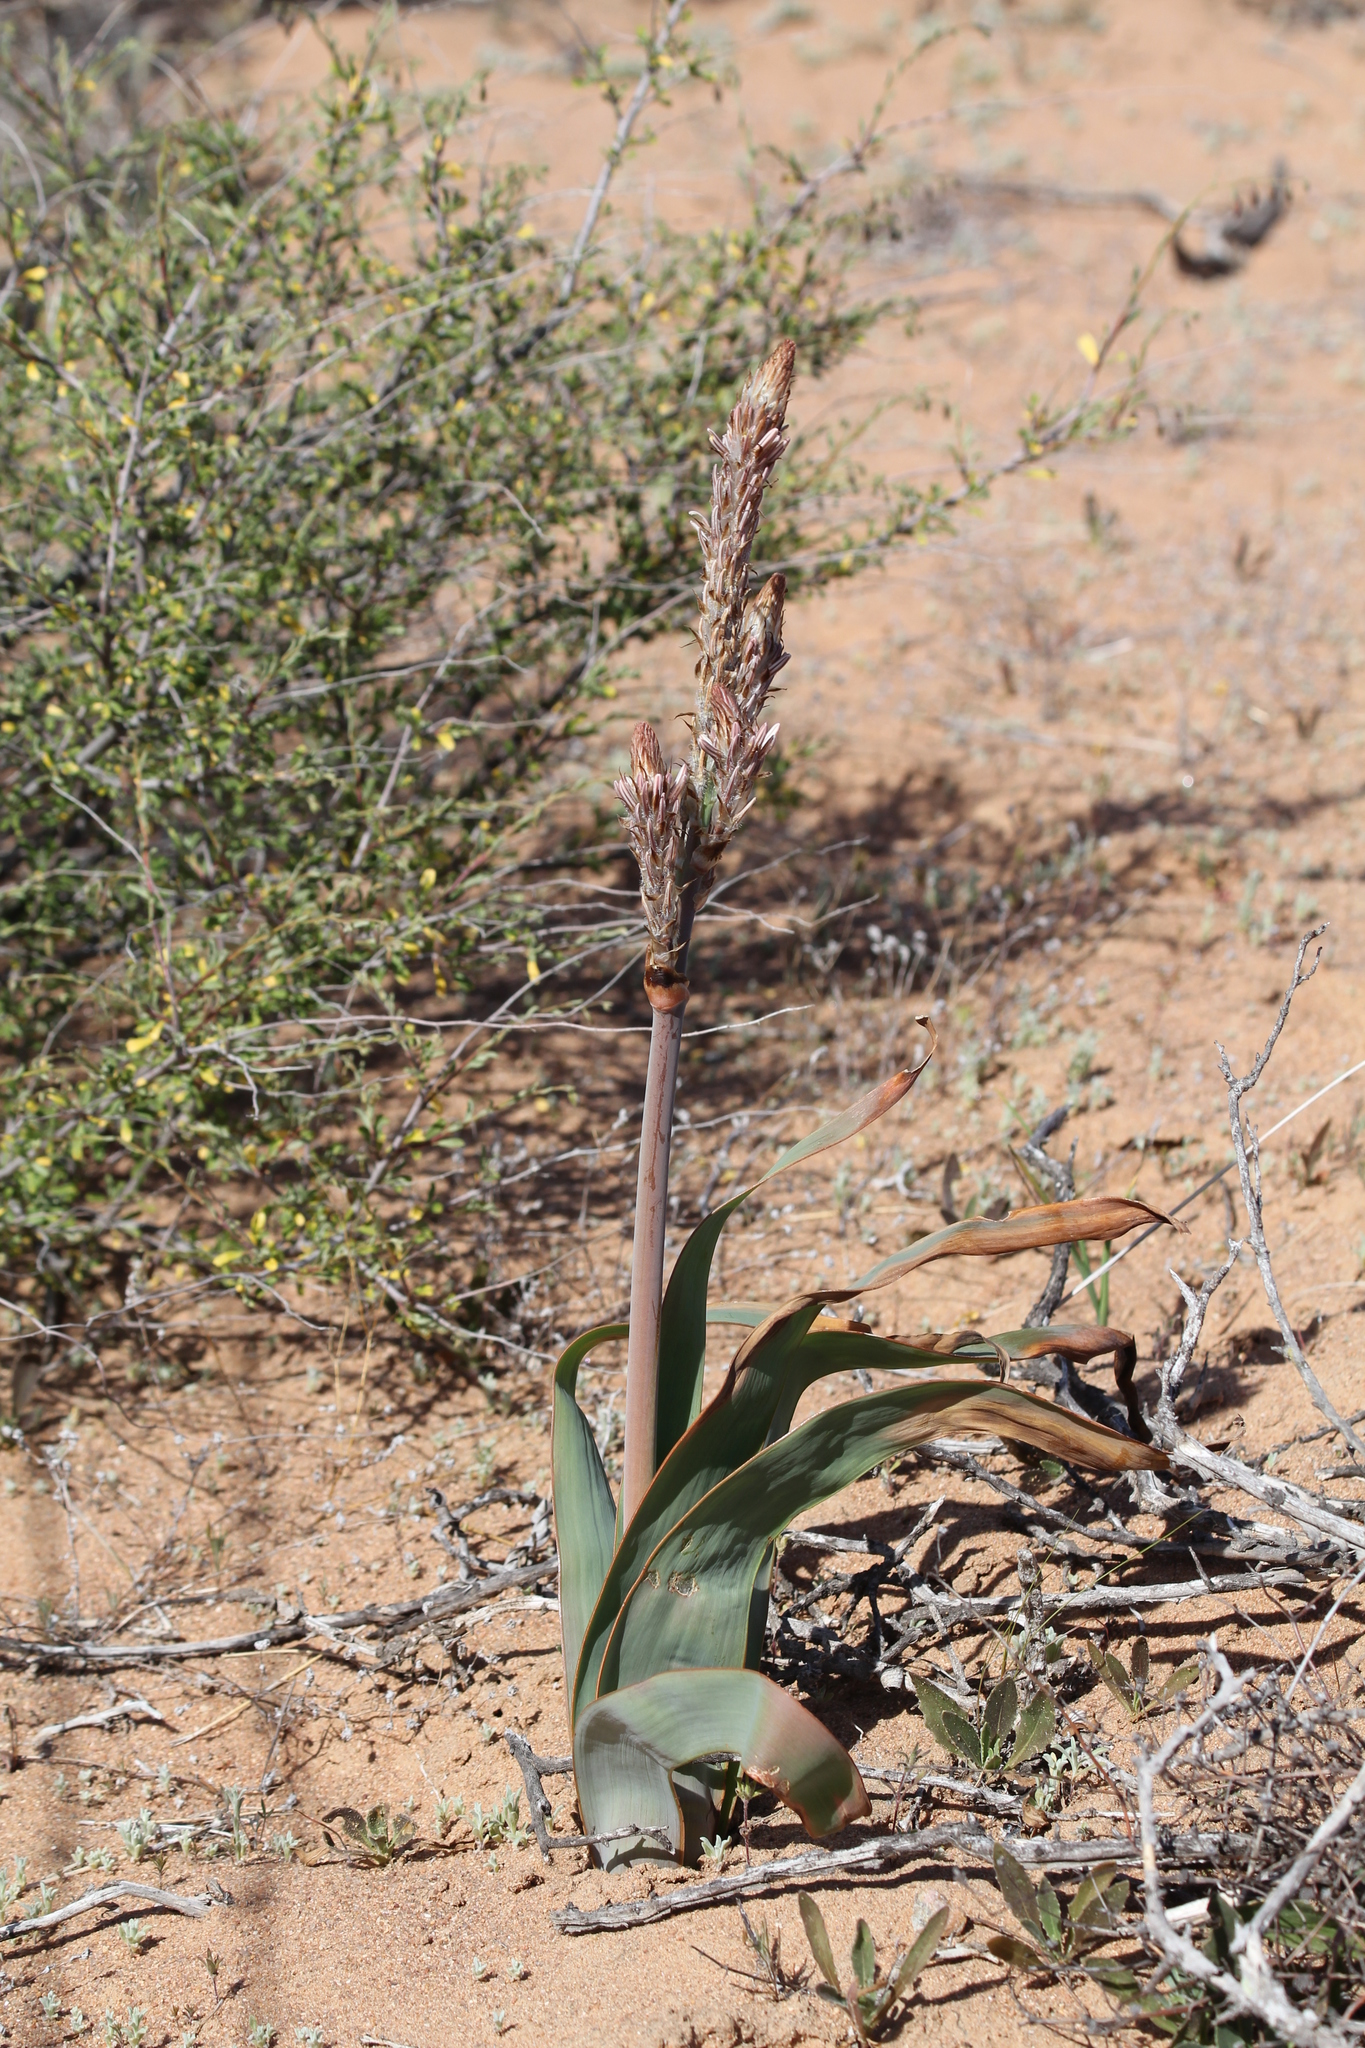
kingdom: Plantae
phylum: Tracheophyta
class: Liliopsida
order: Asparagales
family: Asphodelaceae
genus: Trachyandra
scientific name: Trachyandra falcata
